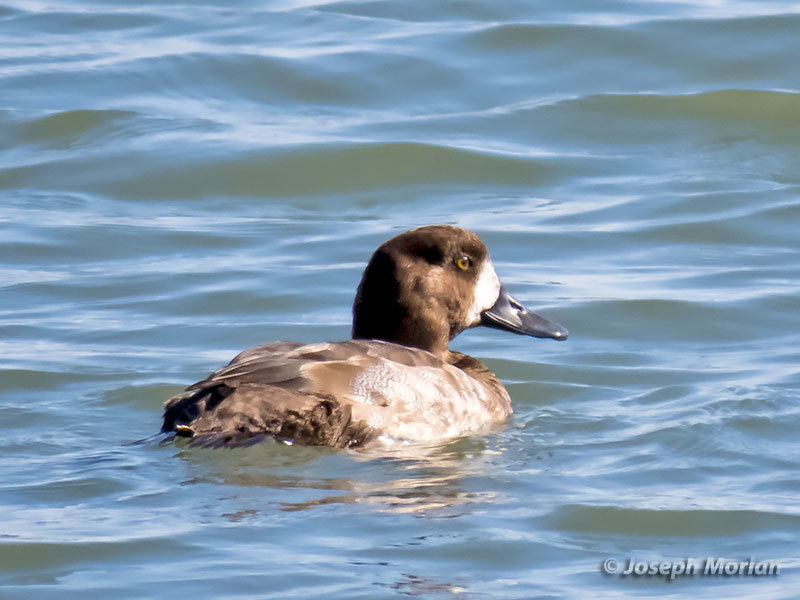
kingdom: Animalia
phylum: Chordata
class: Aves
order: Anseriformes
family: Anatidae
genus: Aythya
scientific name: Aythya marila
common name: Greater scaup
